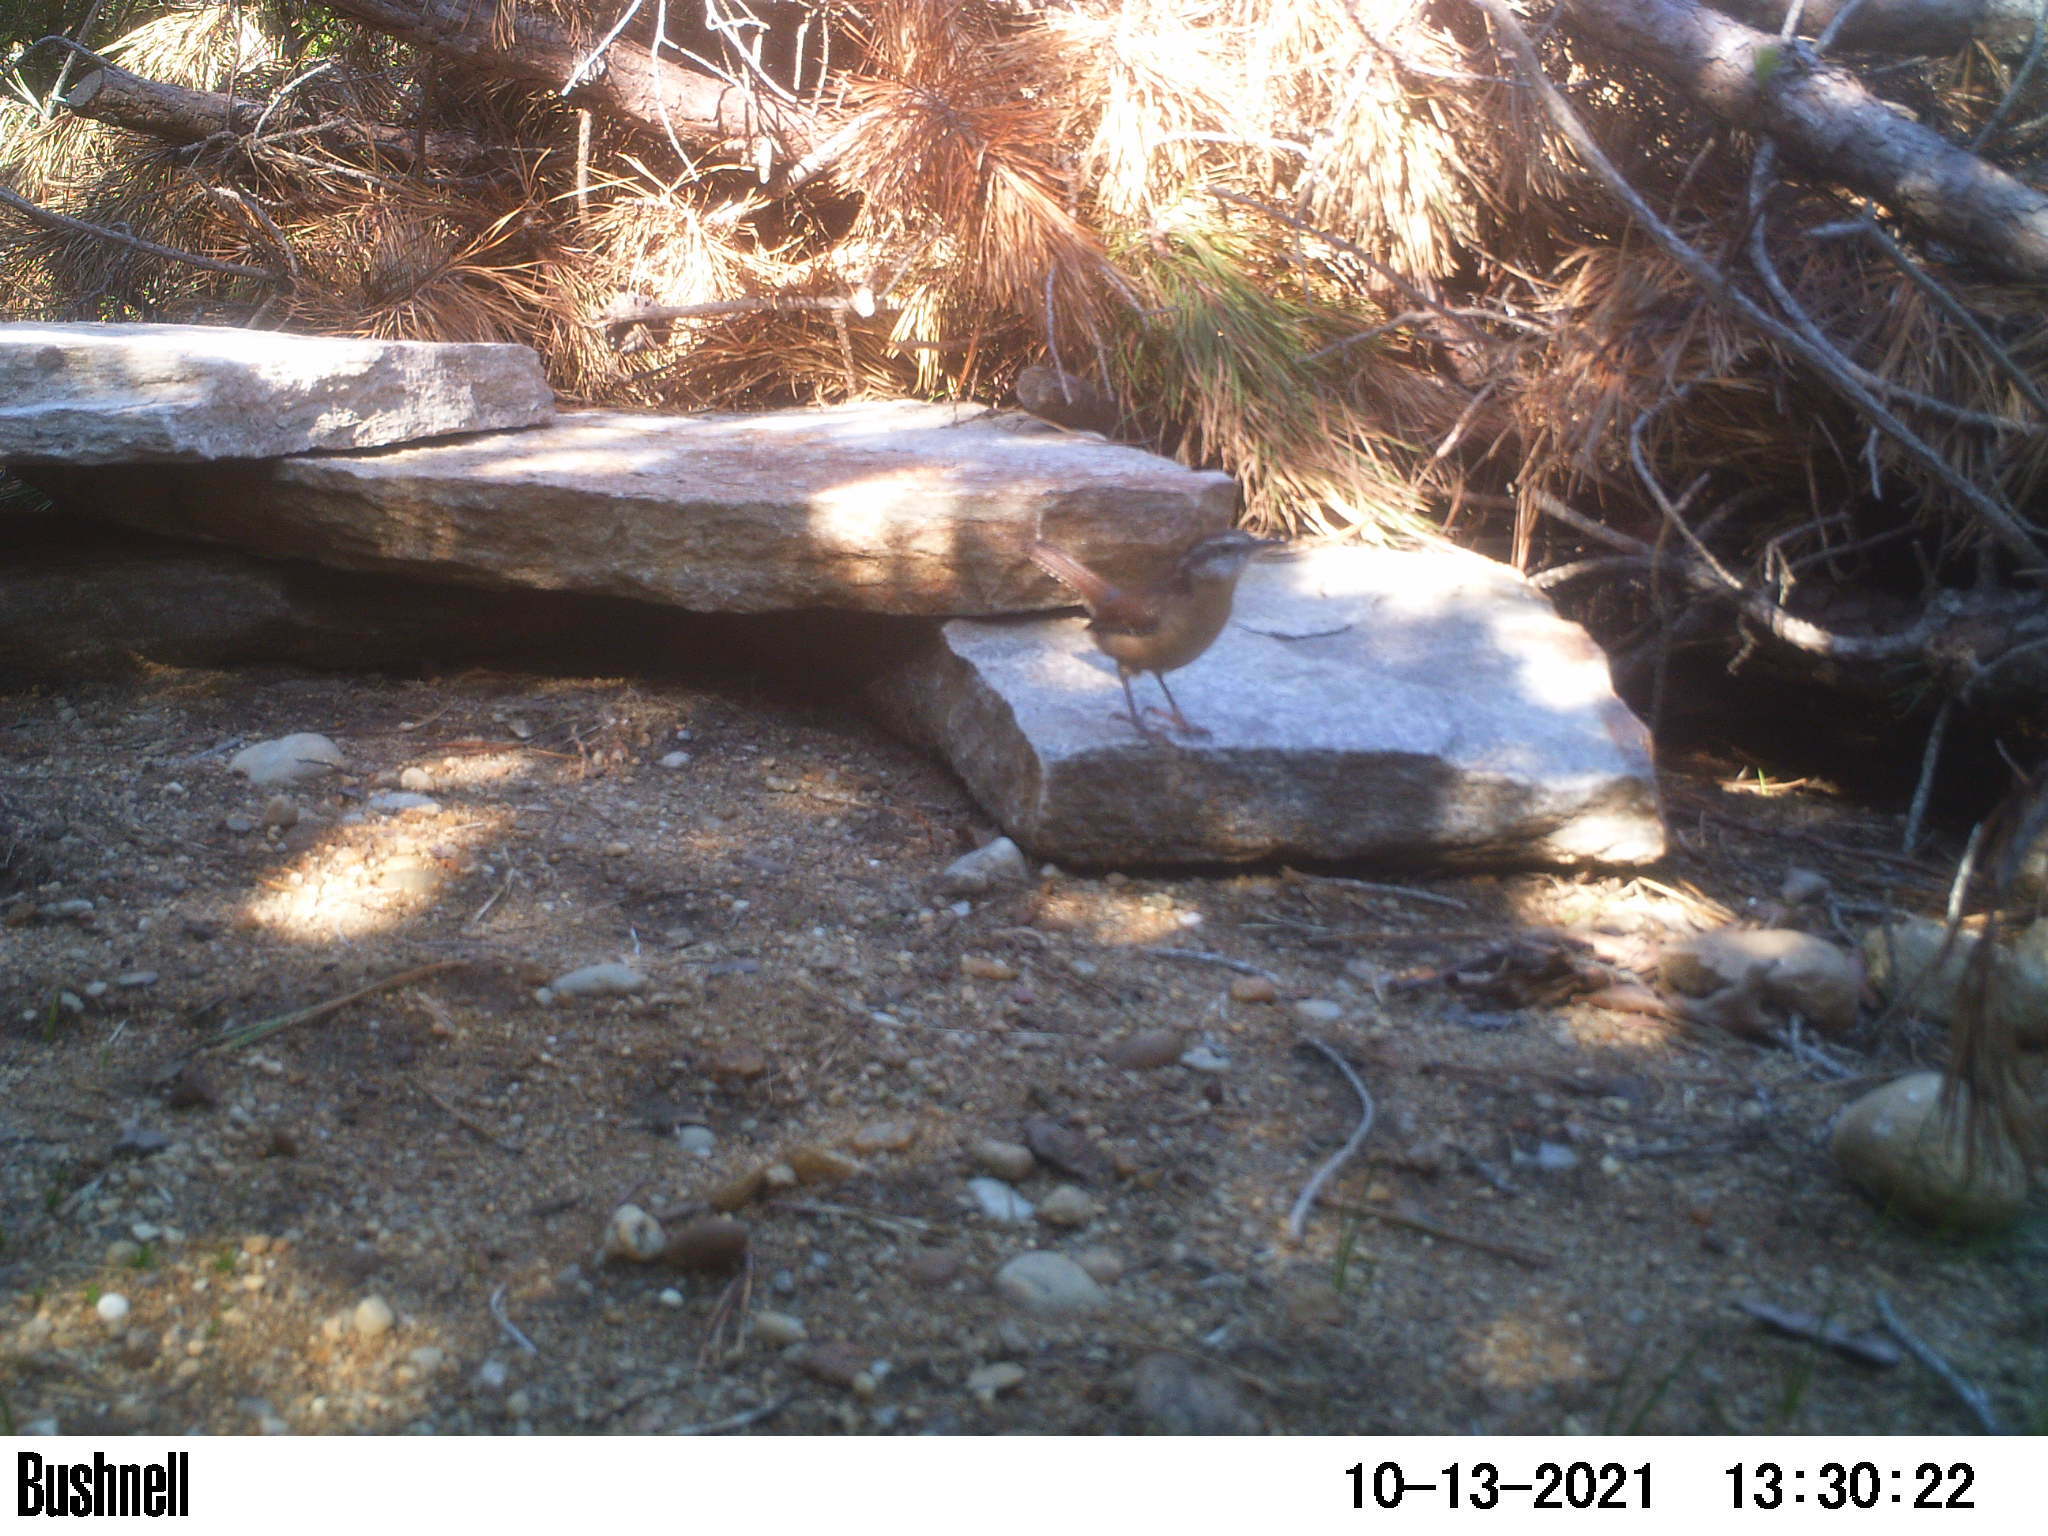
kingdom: Animalia
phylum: Chordata
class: Aves
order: Passeriformes
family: Troglodytidae
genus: Thryothorus
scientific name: Thryothorus ludovicianus
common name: Carolina wren
